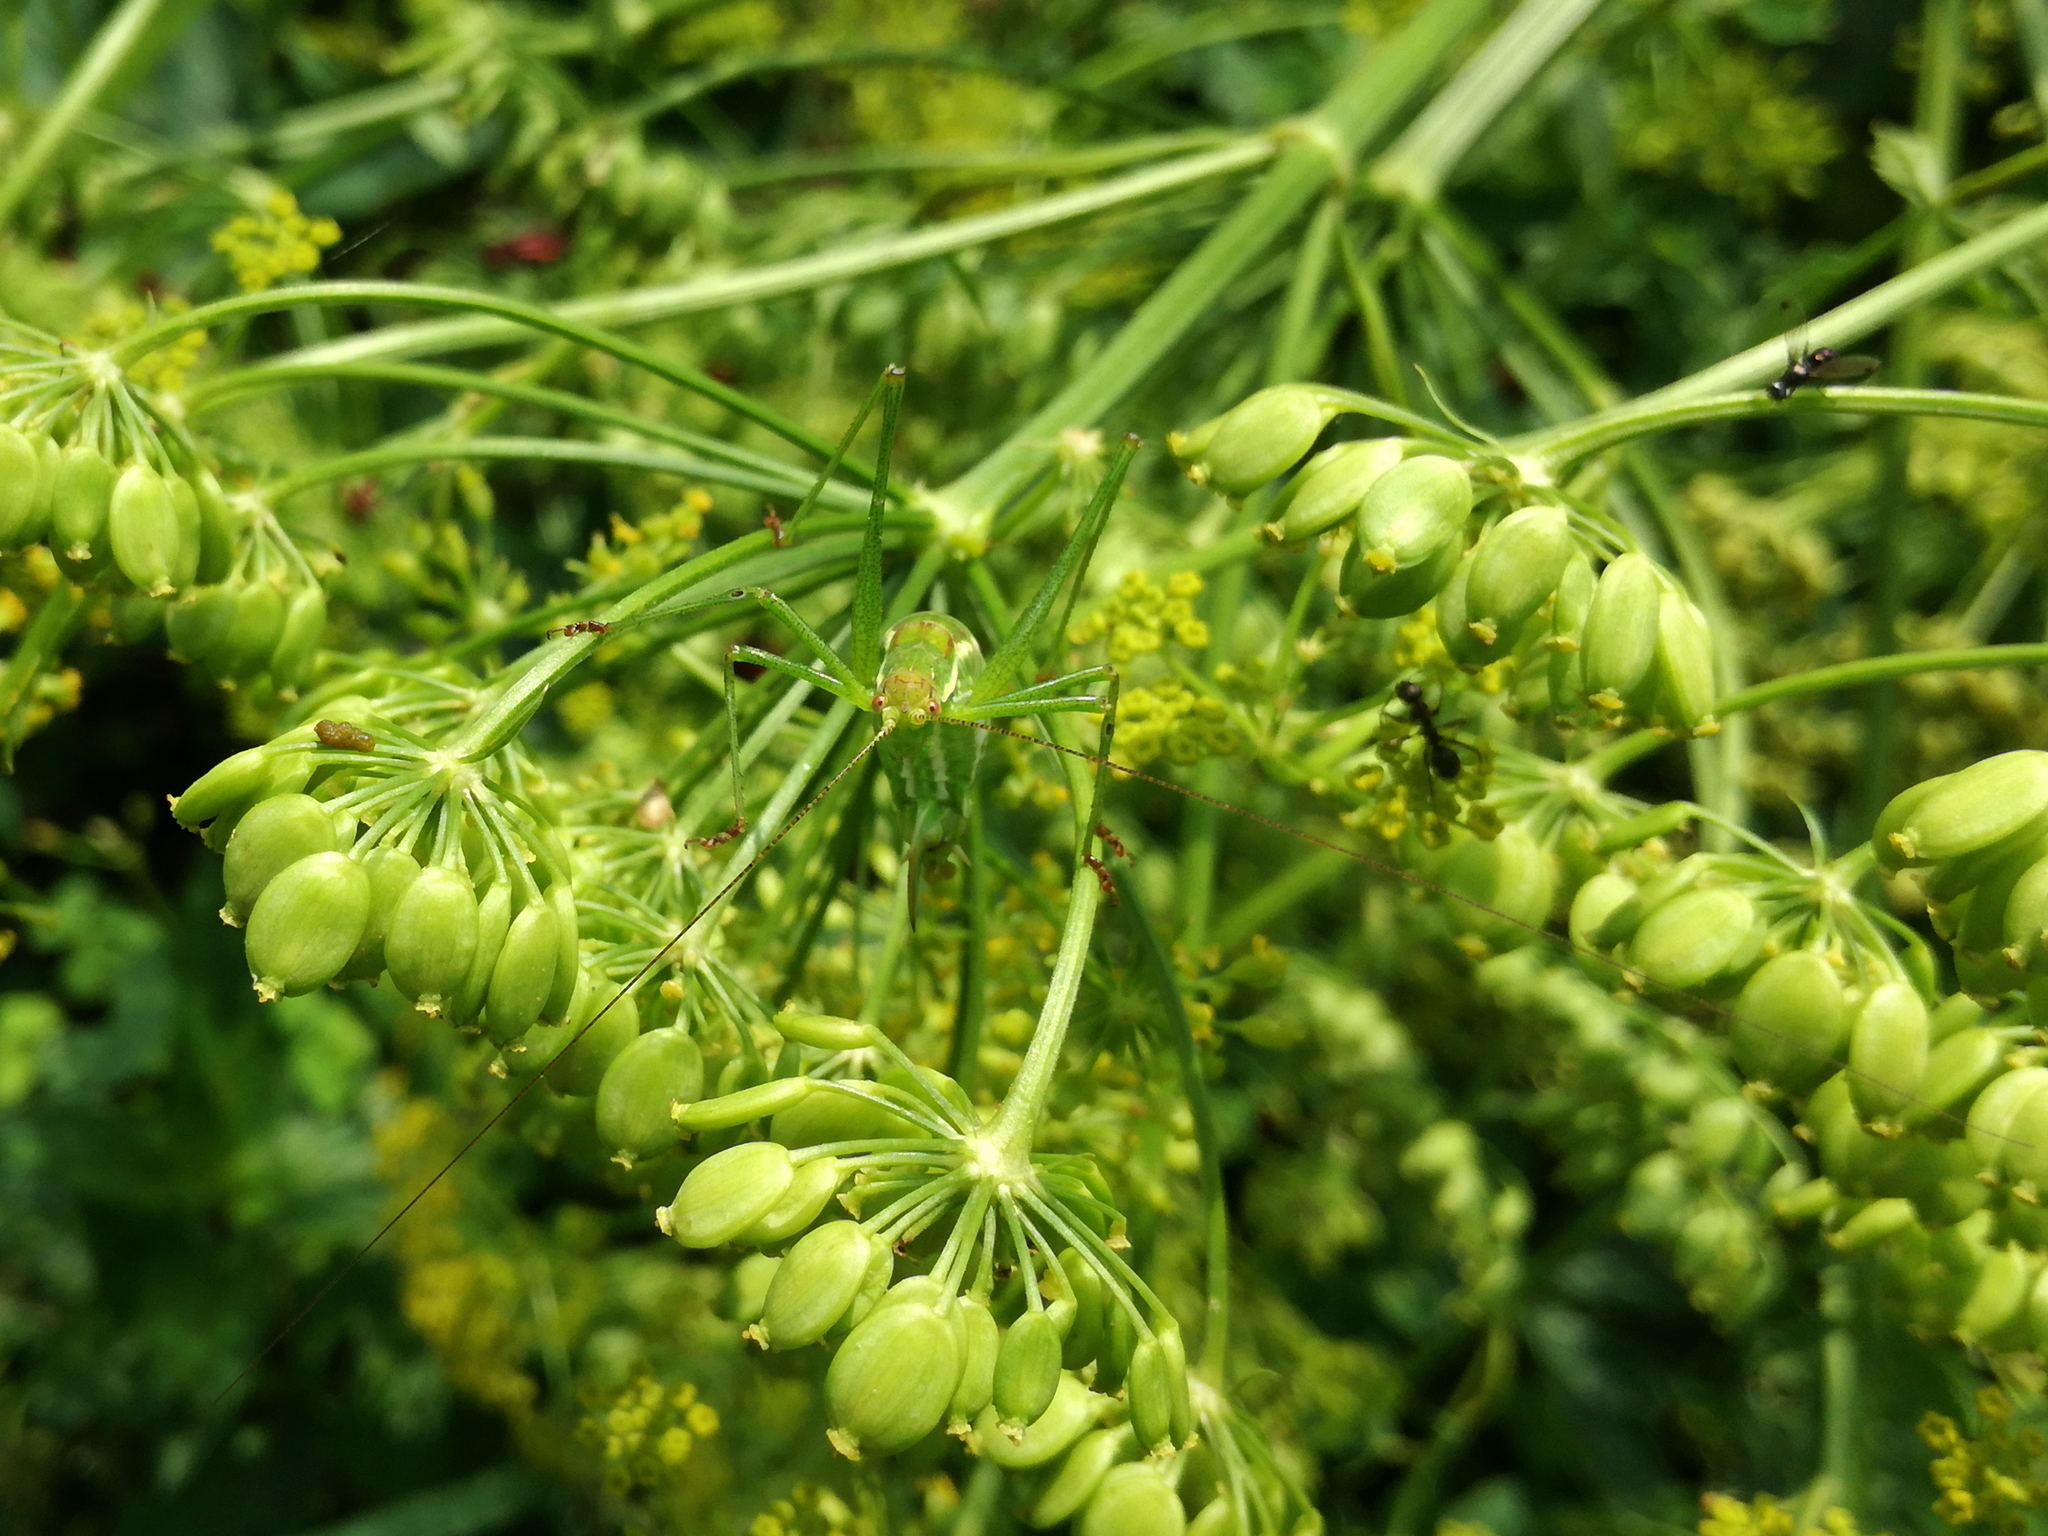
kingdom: Animalia
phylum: Arthropoda
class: Insecta
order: Orthoptera
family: Tettigoniidae
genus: Leptophyes
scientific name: Leptophyes albovittata
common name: Striped bush-cricket
